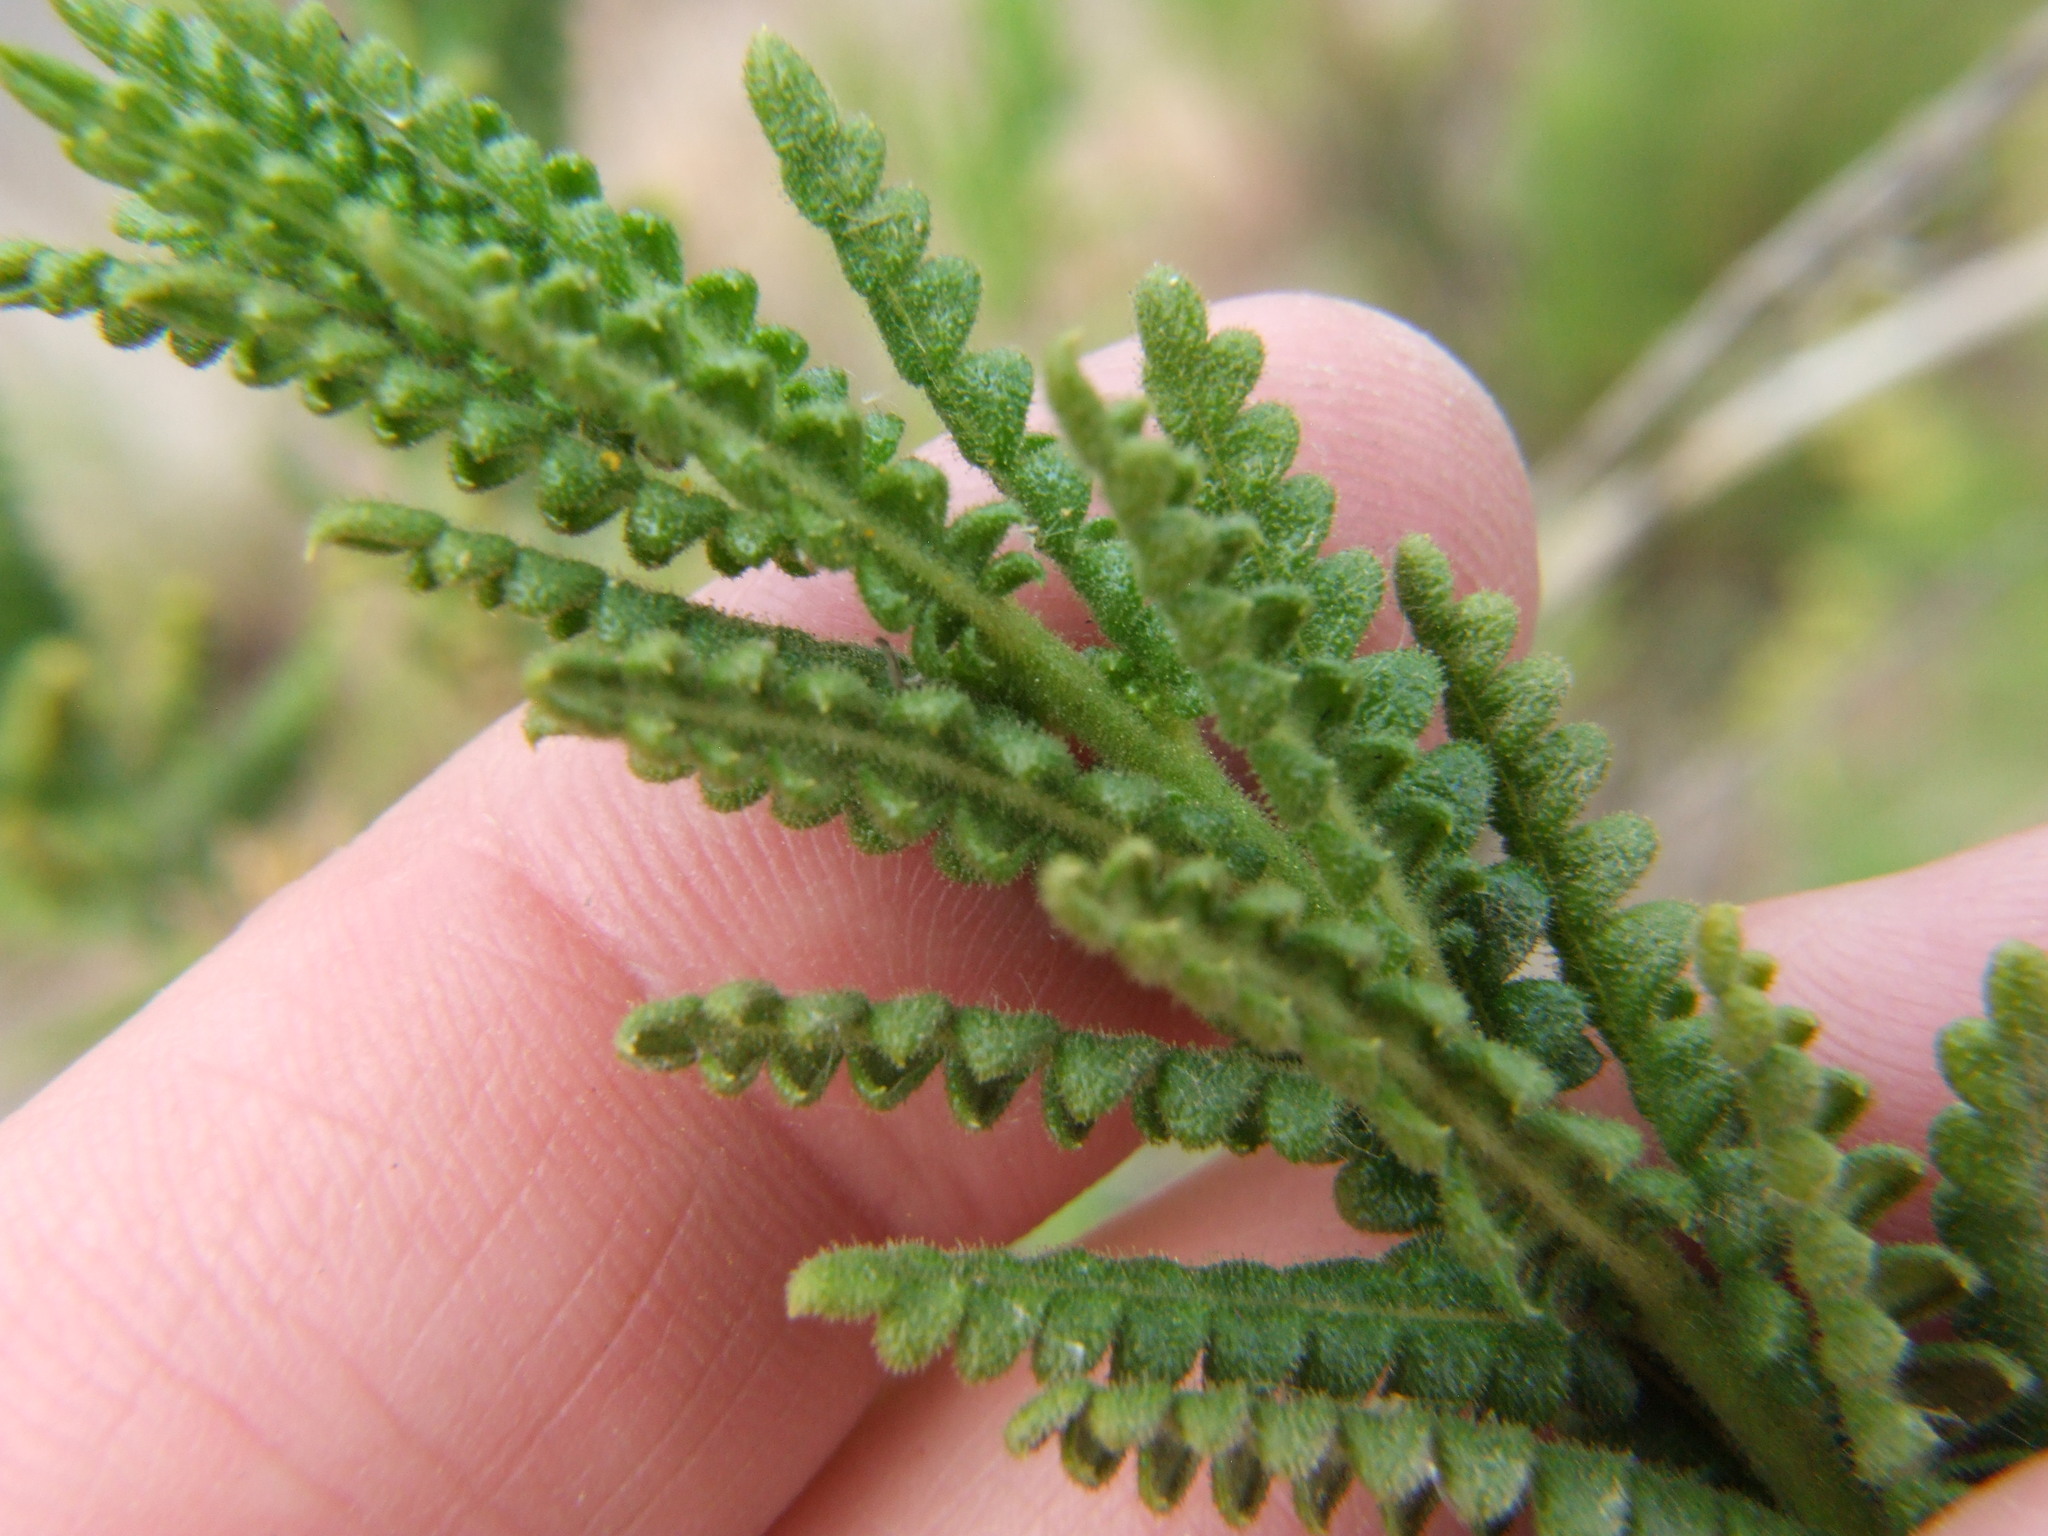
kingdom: Plantae
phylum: Tracheophyta
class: Magnoliopsida
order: Ericales
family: Polemoniaceae
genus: Cantua
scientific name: Cantua volcanica
